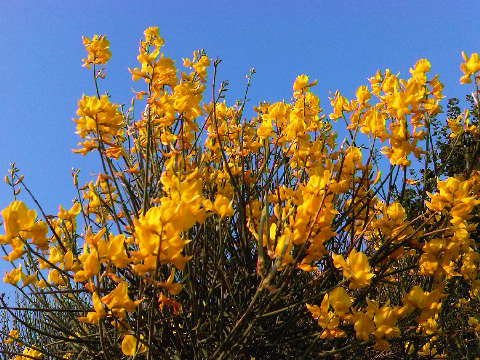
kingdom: Plantae
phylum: Tracheophyta
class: Magnoliopsida
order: Fabales
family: Fabaceae
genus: Spartium
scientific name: Spartium junceum
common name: Spanish broom
